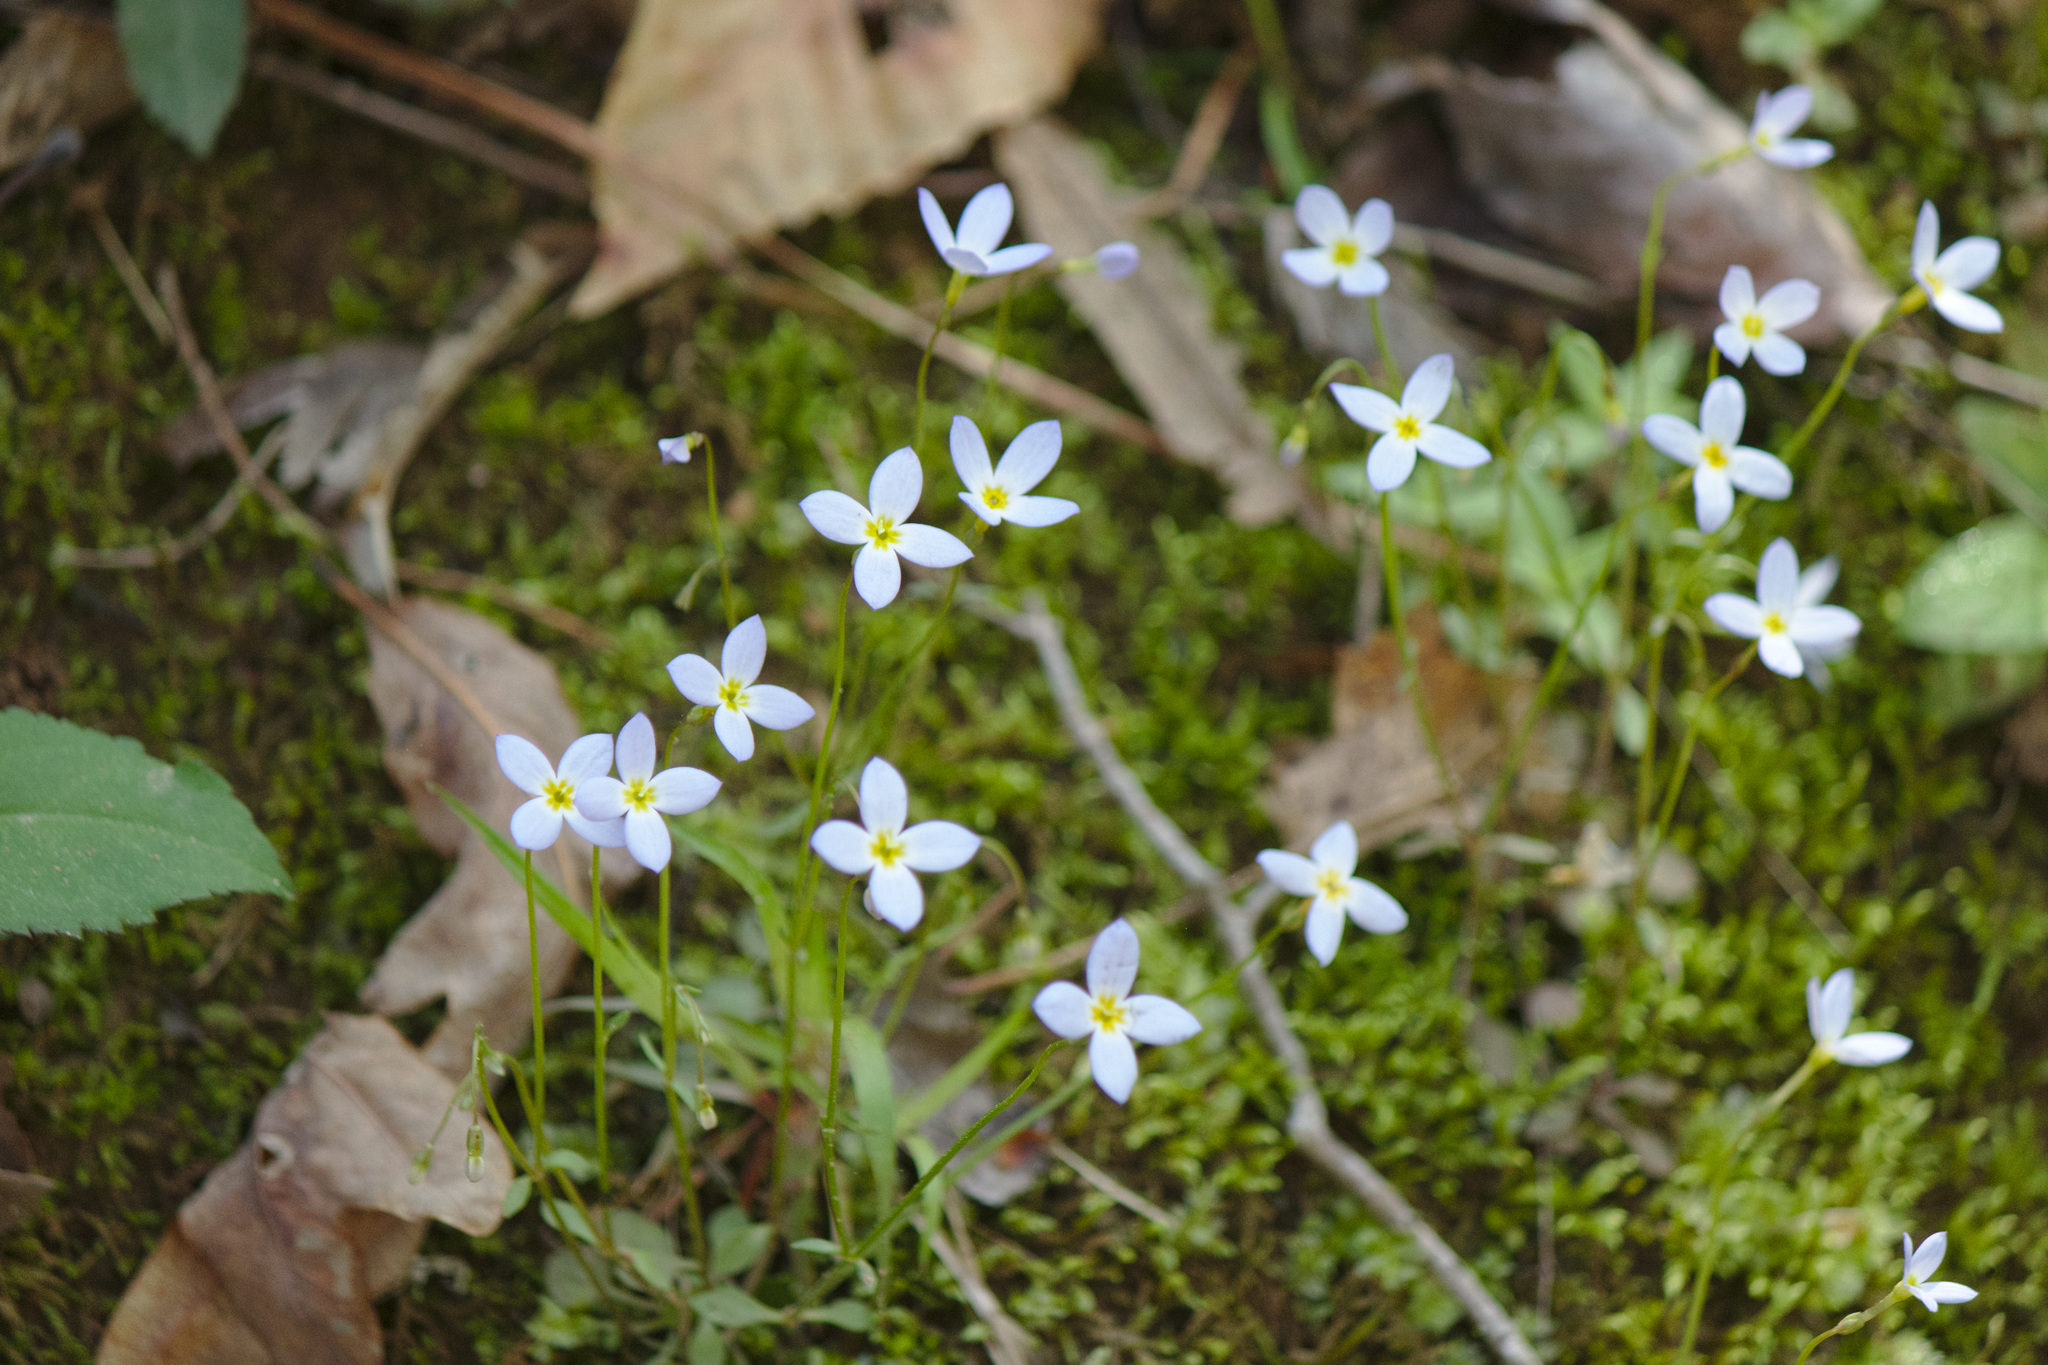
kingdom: Plantae
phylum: Tracheophyta
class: Magnoliopsida
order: Gentianales
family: Rubiaceae
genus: Houstonia
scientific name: Houstonia caerulea
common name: Bluets
